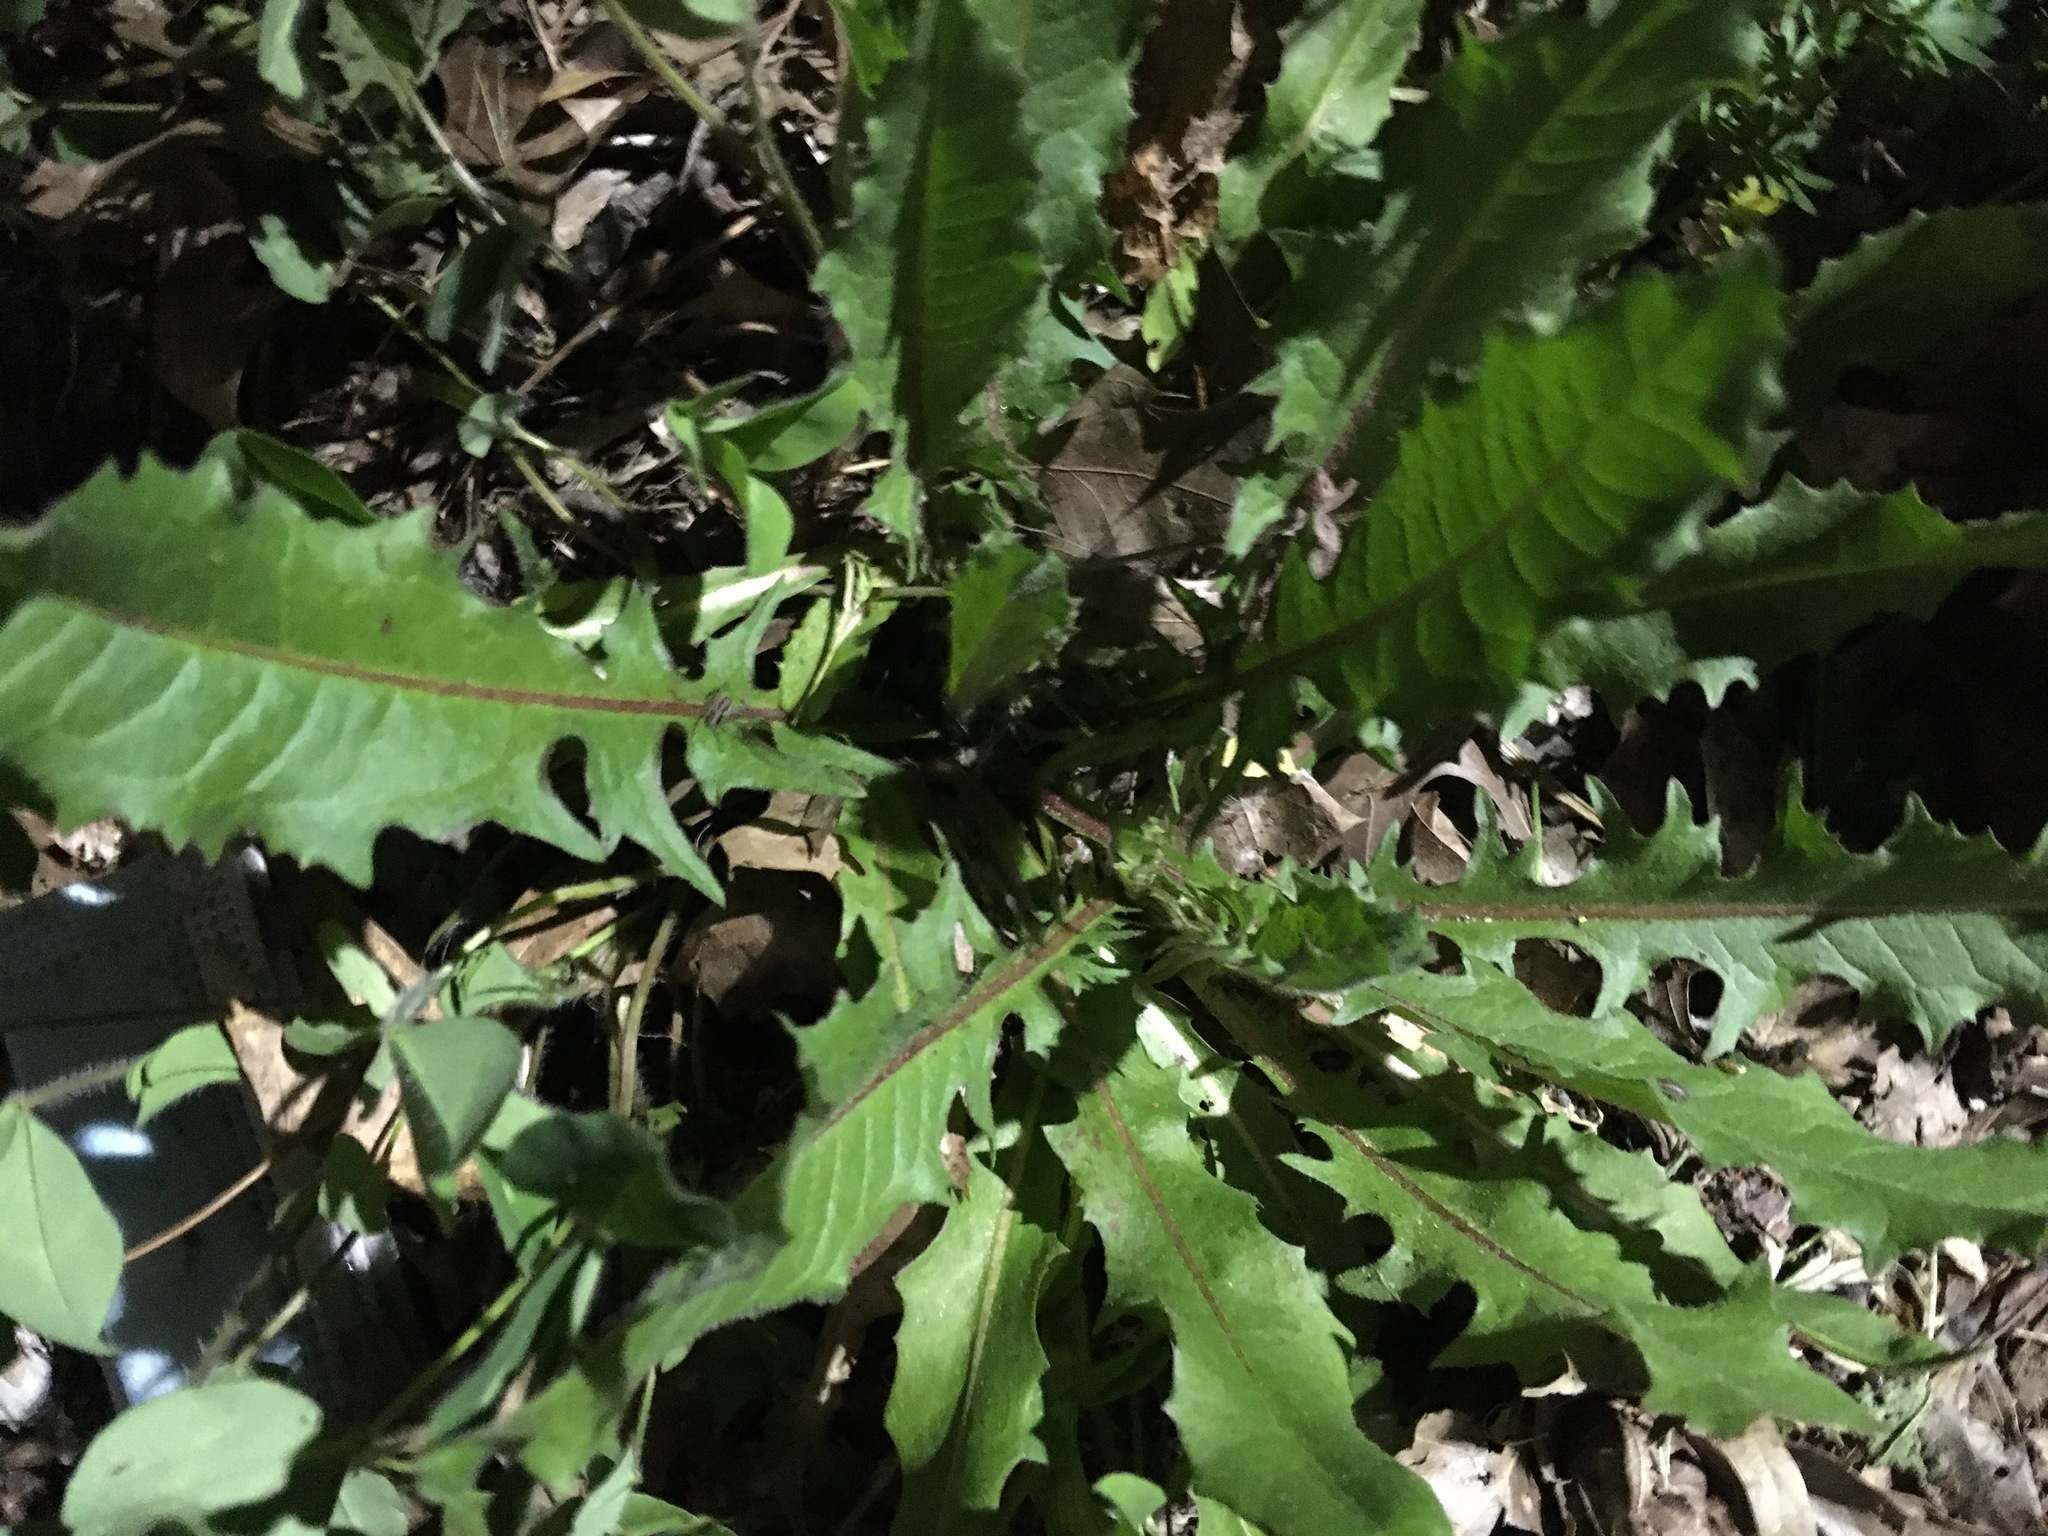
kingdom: Plantae
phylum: Tracheophyta
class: Magnoliopsida
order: Asterales
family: Asteraceae
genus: Taraxacum
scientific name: Taraxacum officinale
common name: Common dandelion
